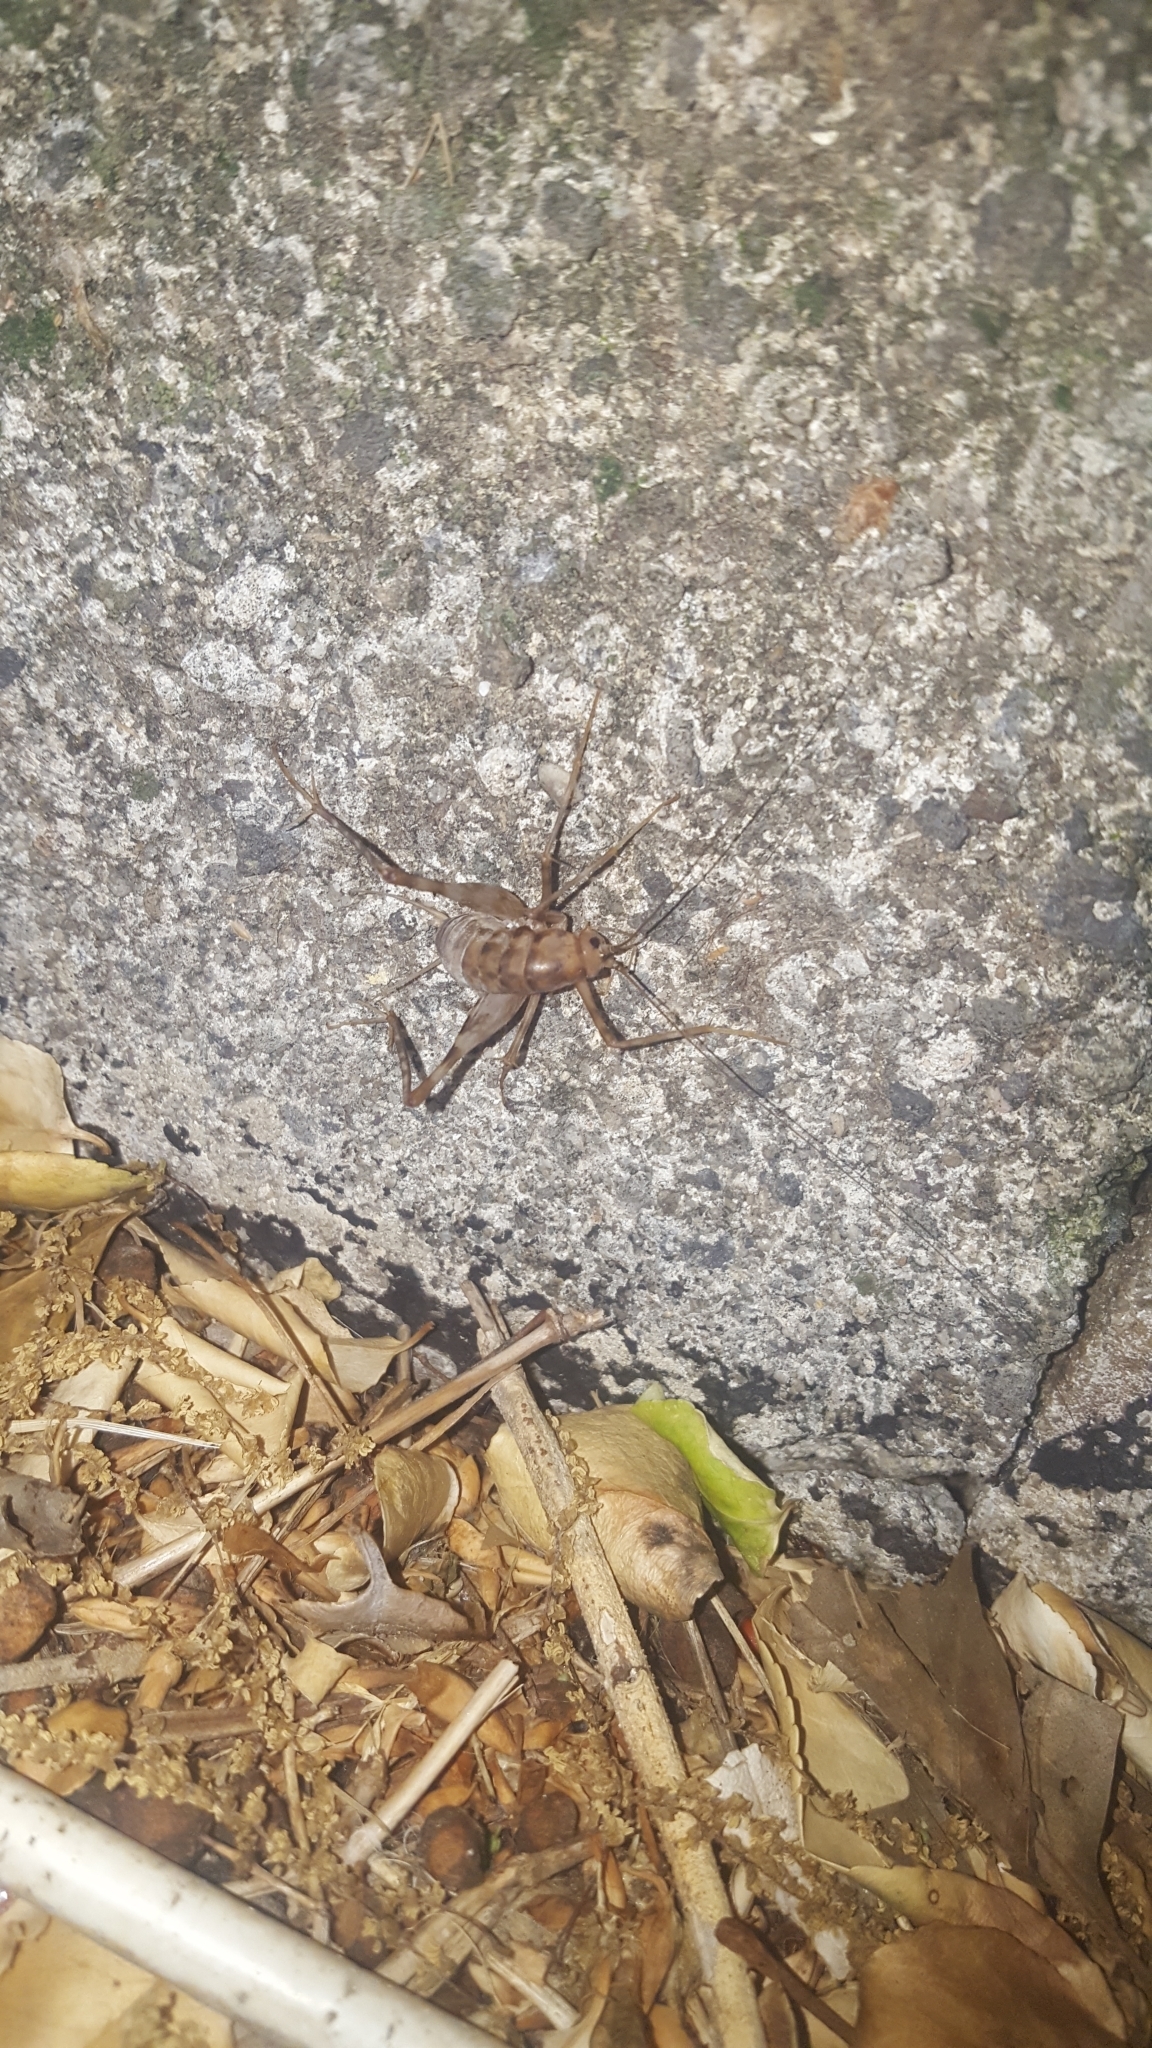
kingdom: Animalia
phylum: Arthropoda
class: Insecta
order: Orthoptera
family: Rhaphidophoridae
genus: Tachycines
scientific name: Tachycines asynamorus
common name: Greenhouse camel cricket
